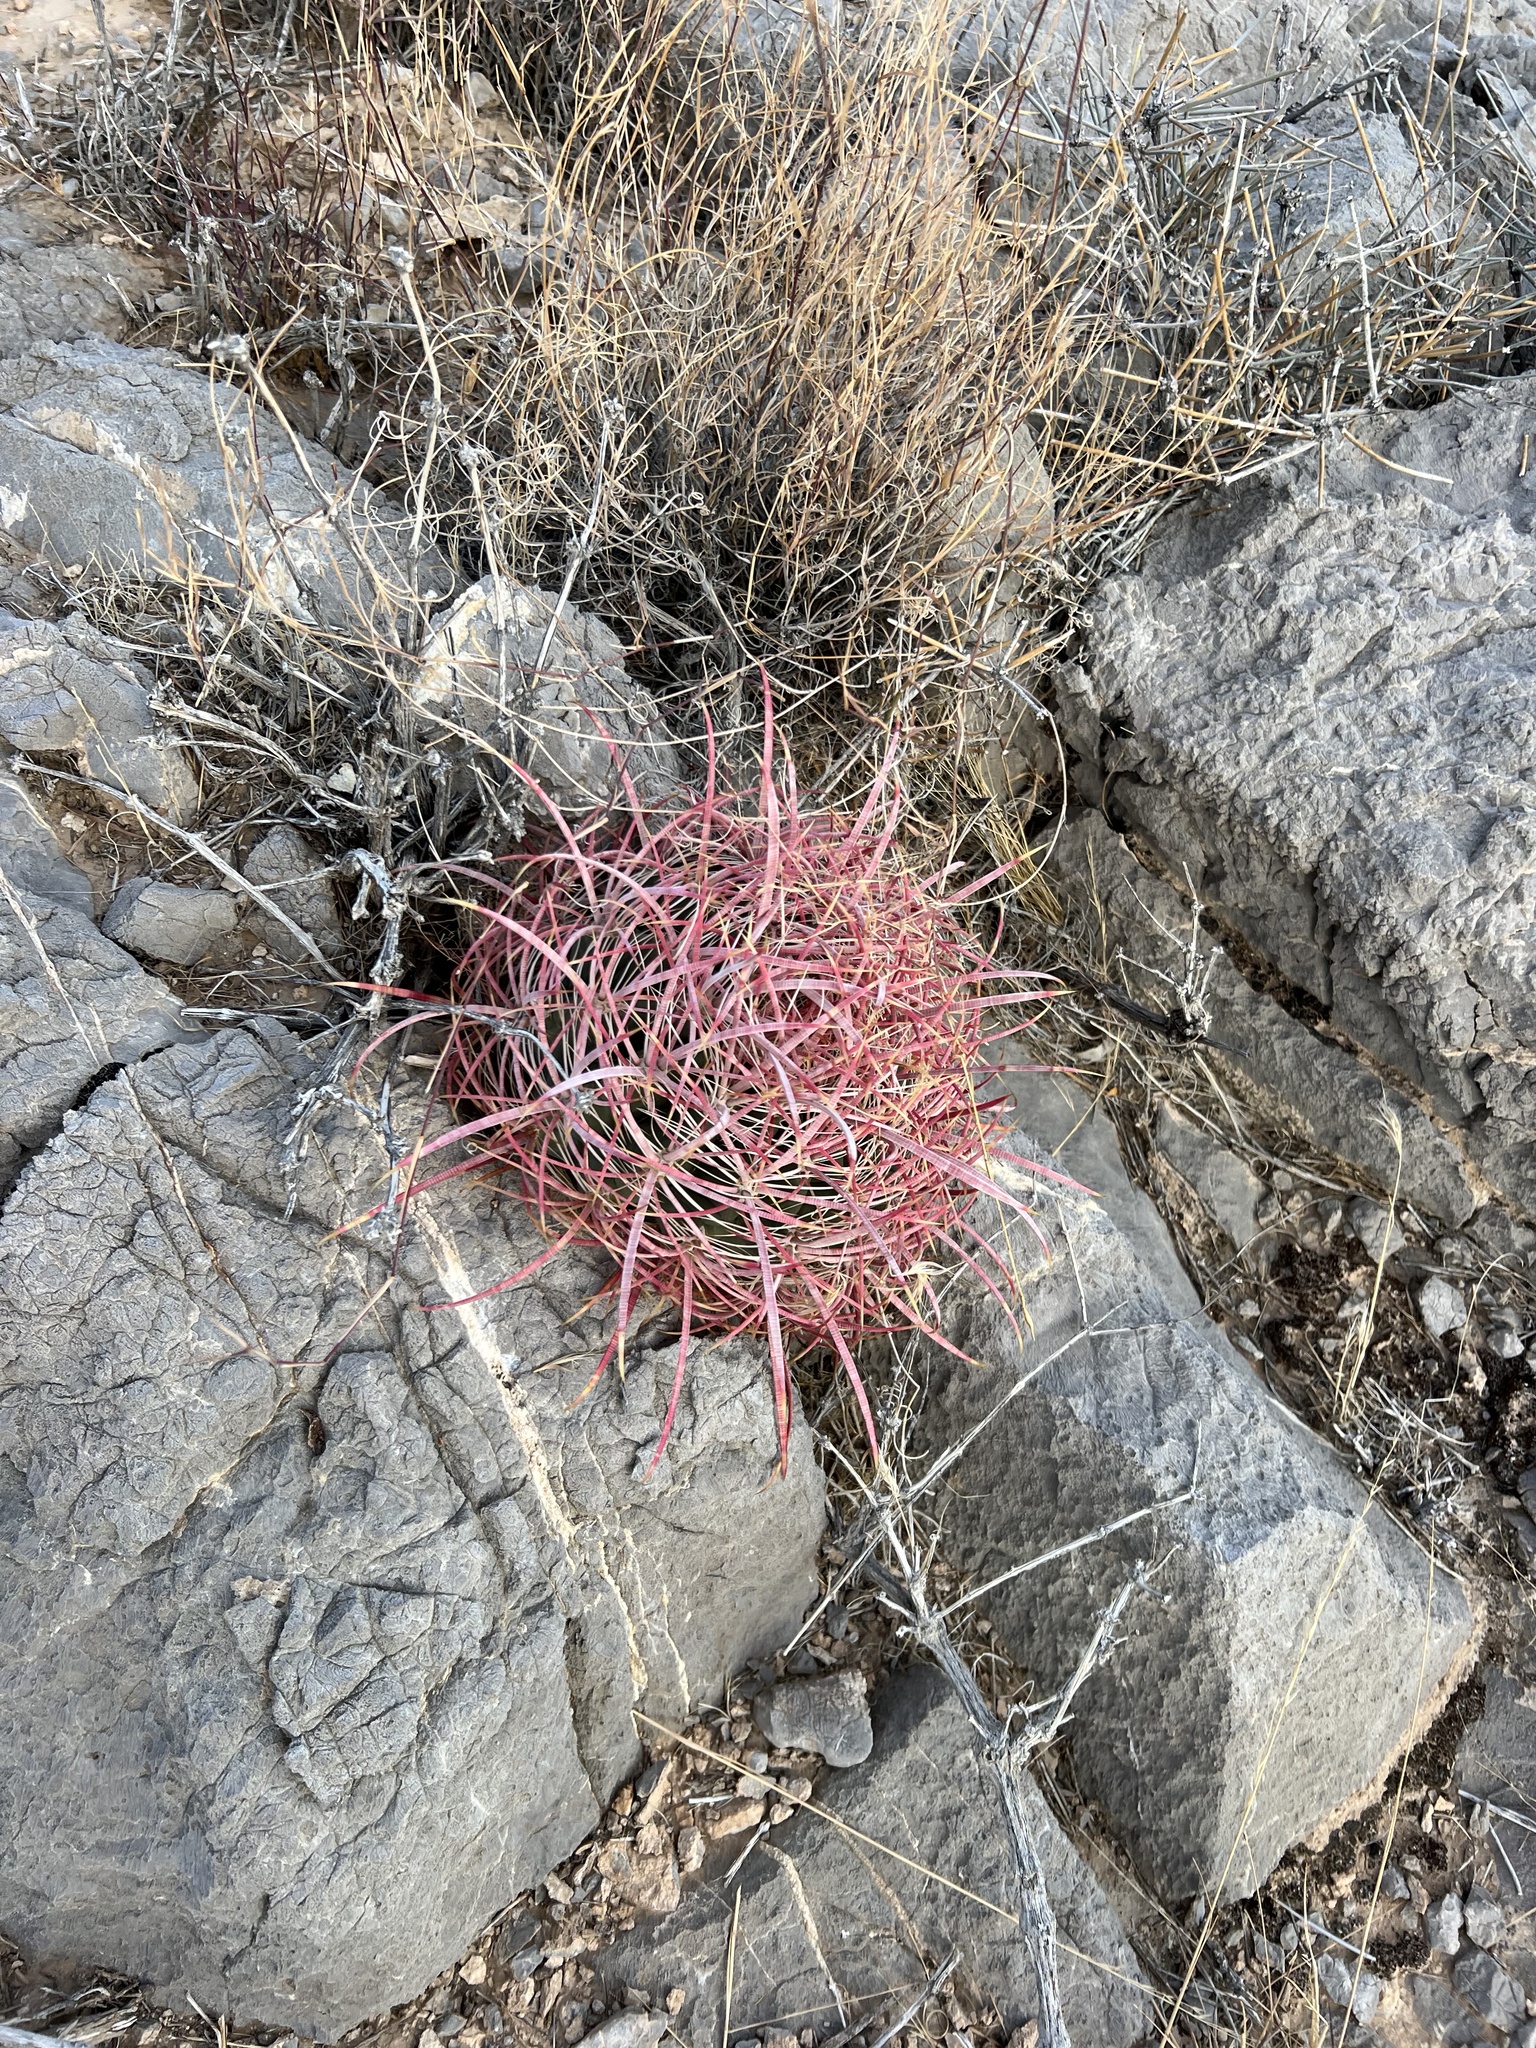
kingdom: Plantae
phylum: Tracheophyta
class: Magnoliopsida
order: Caryophyllales
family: Cactaceae
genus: Ferocactus
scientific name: Ferocactus cylindraceus
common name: California barrel cactus
